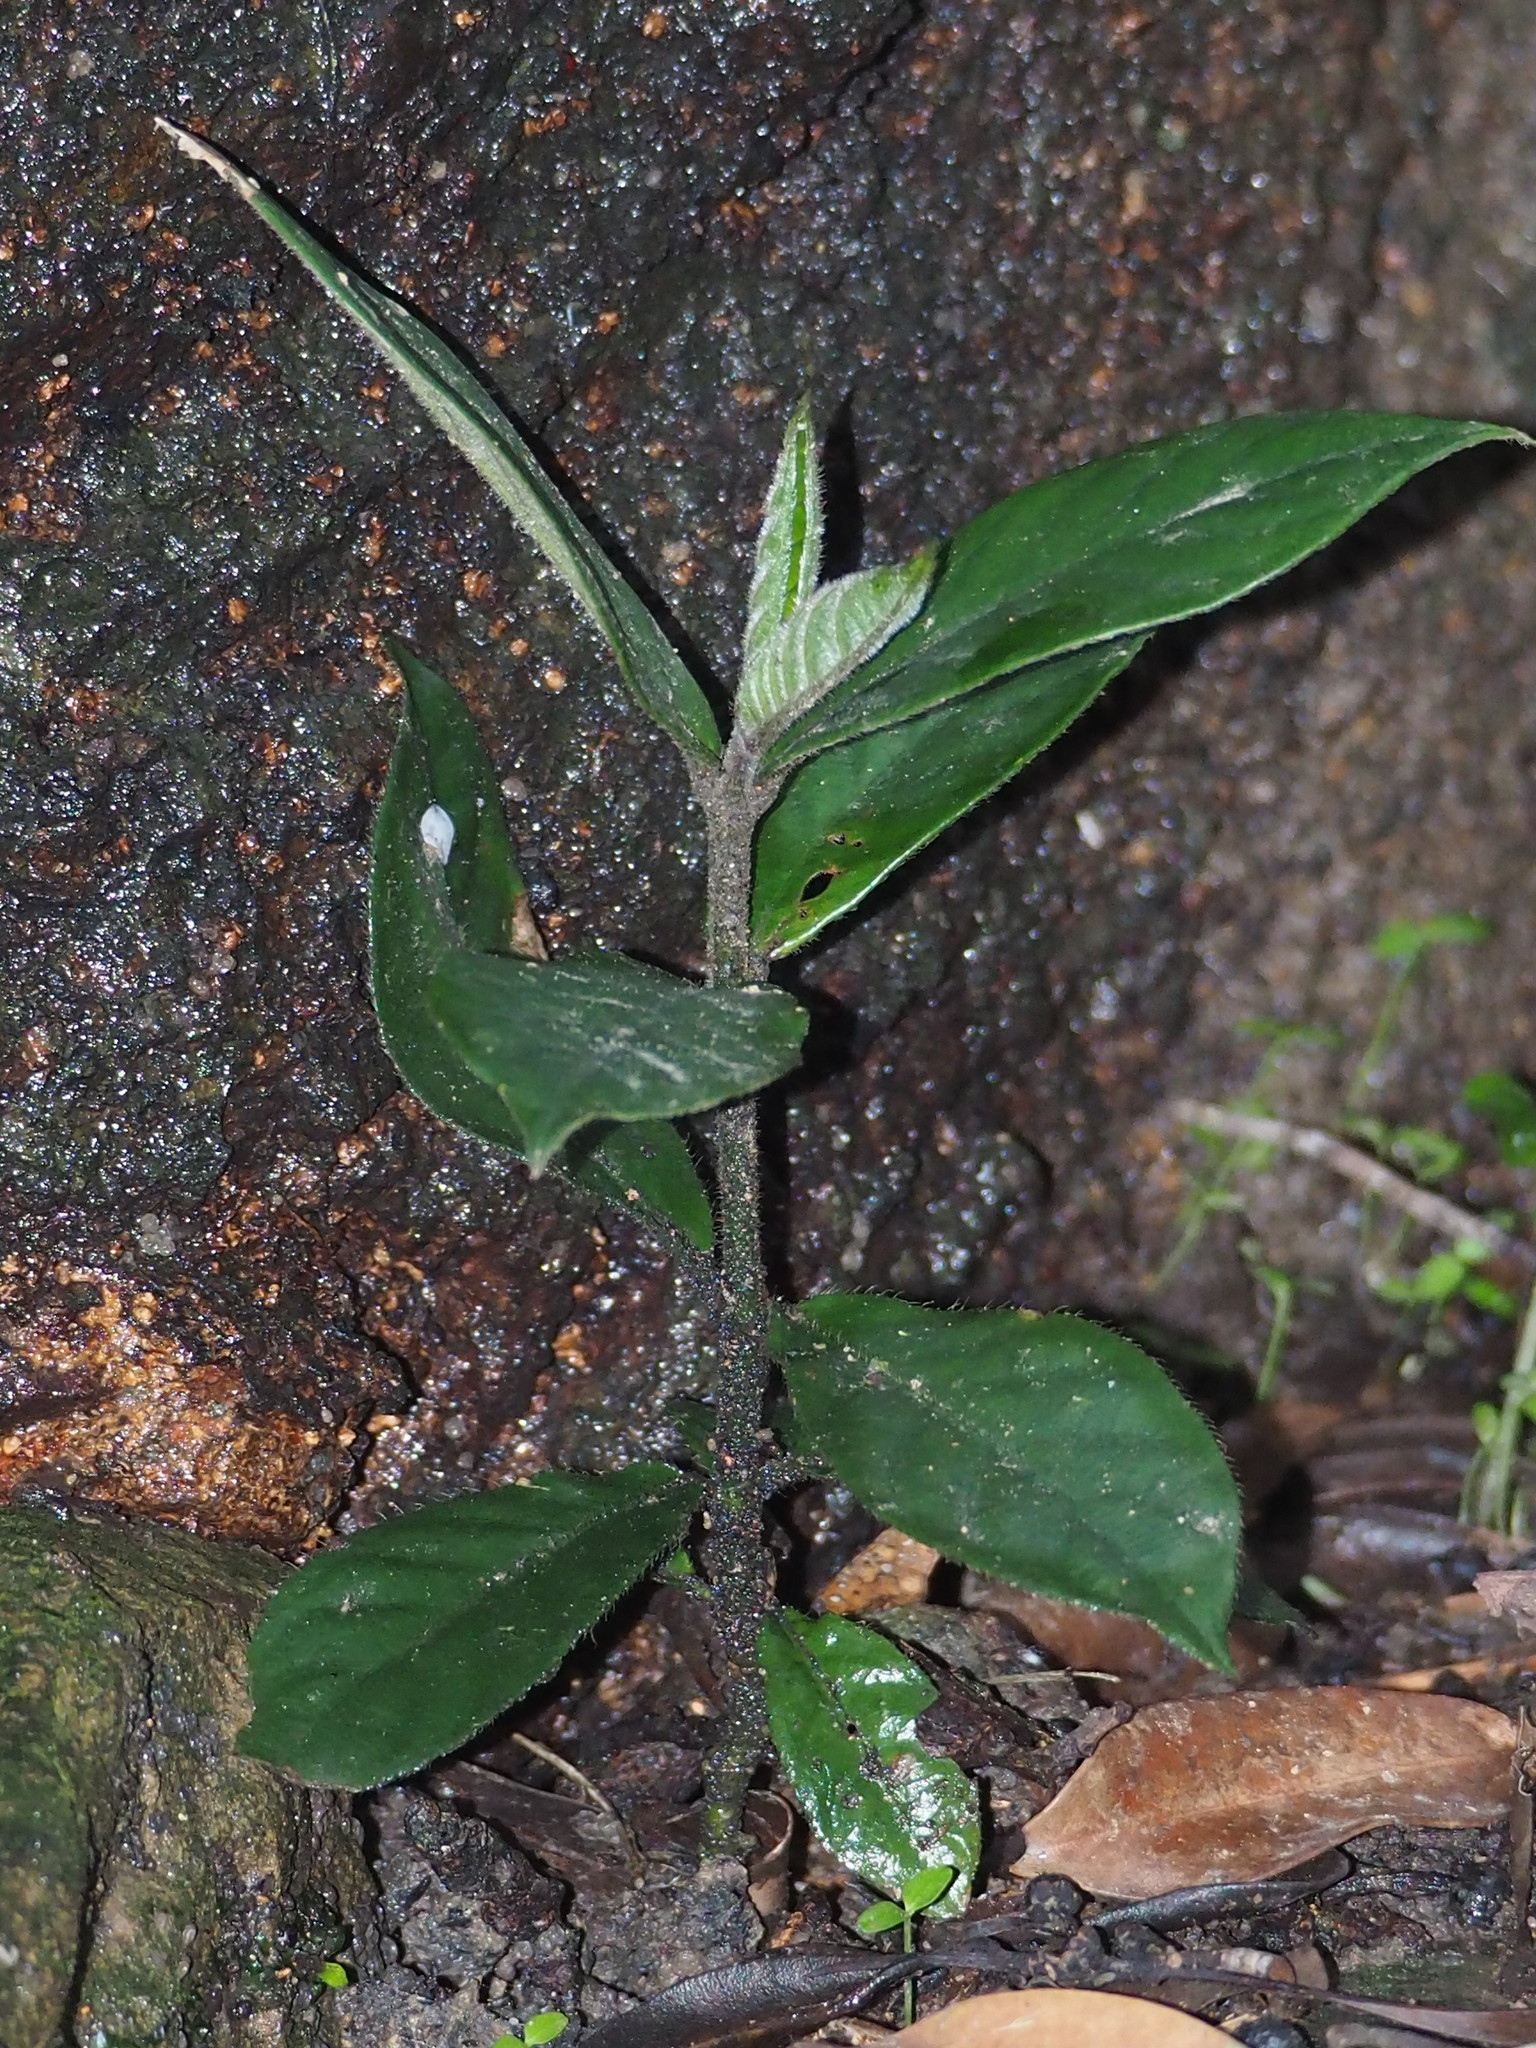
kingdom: Plantae
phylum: Tracheophyta
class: Magnoliopsida
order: Gentianales
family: Rubiaceae
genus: Lasianthus
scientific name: Lasianthus attenuatus
